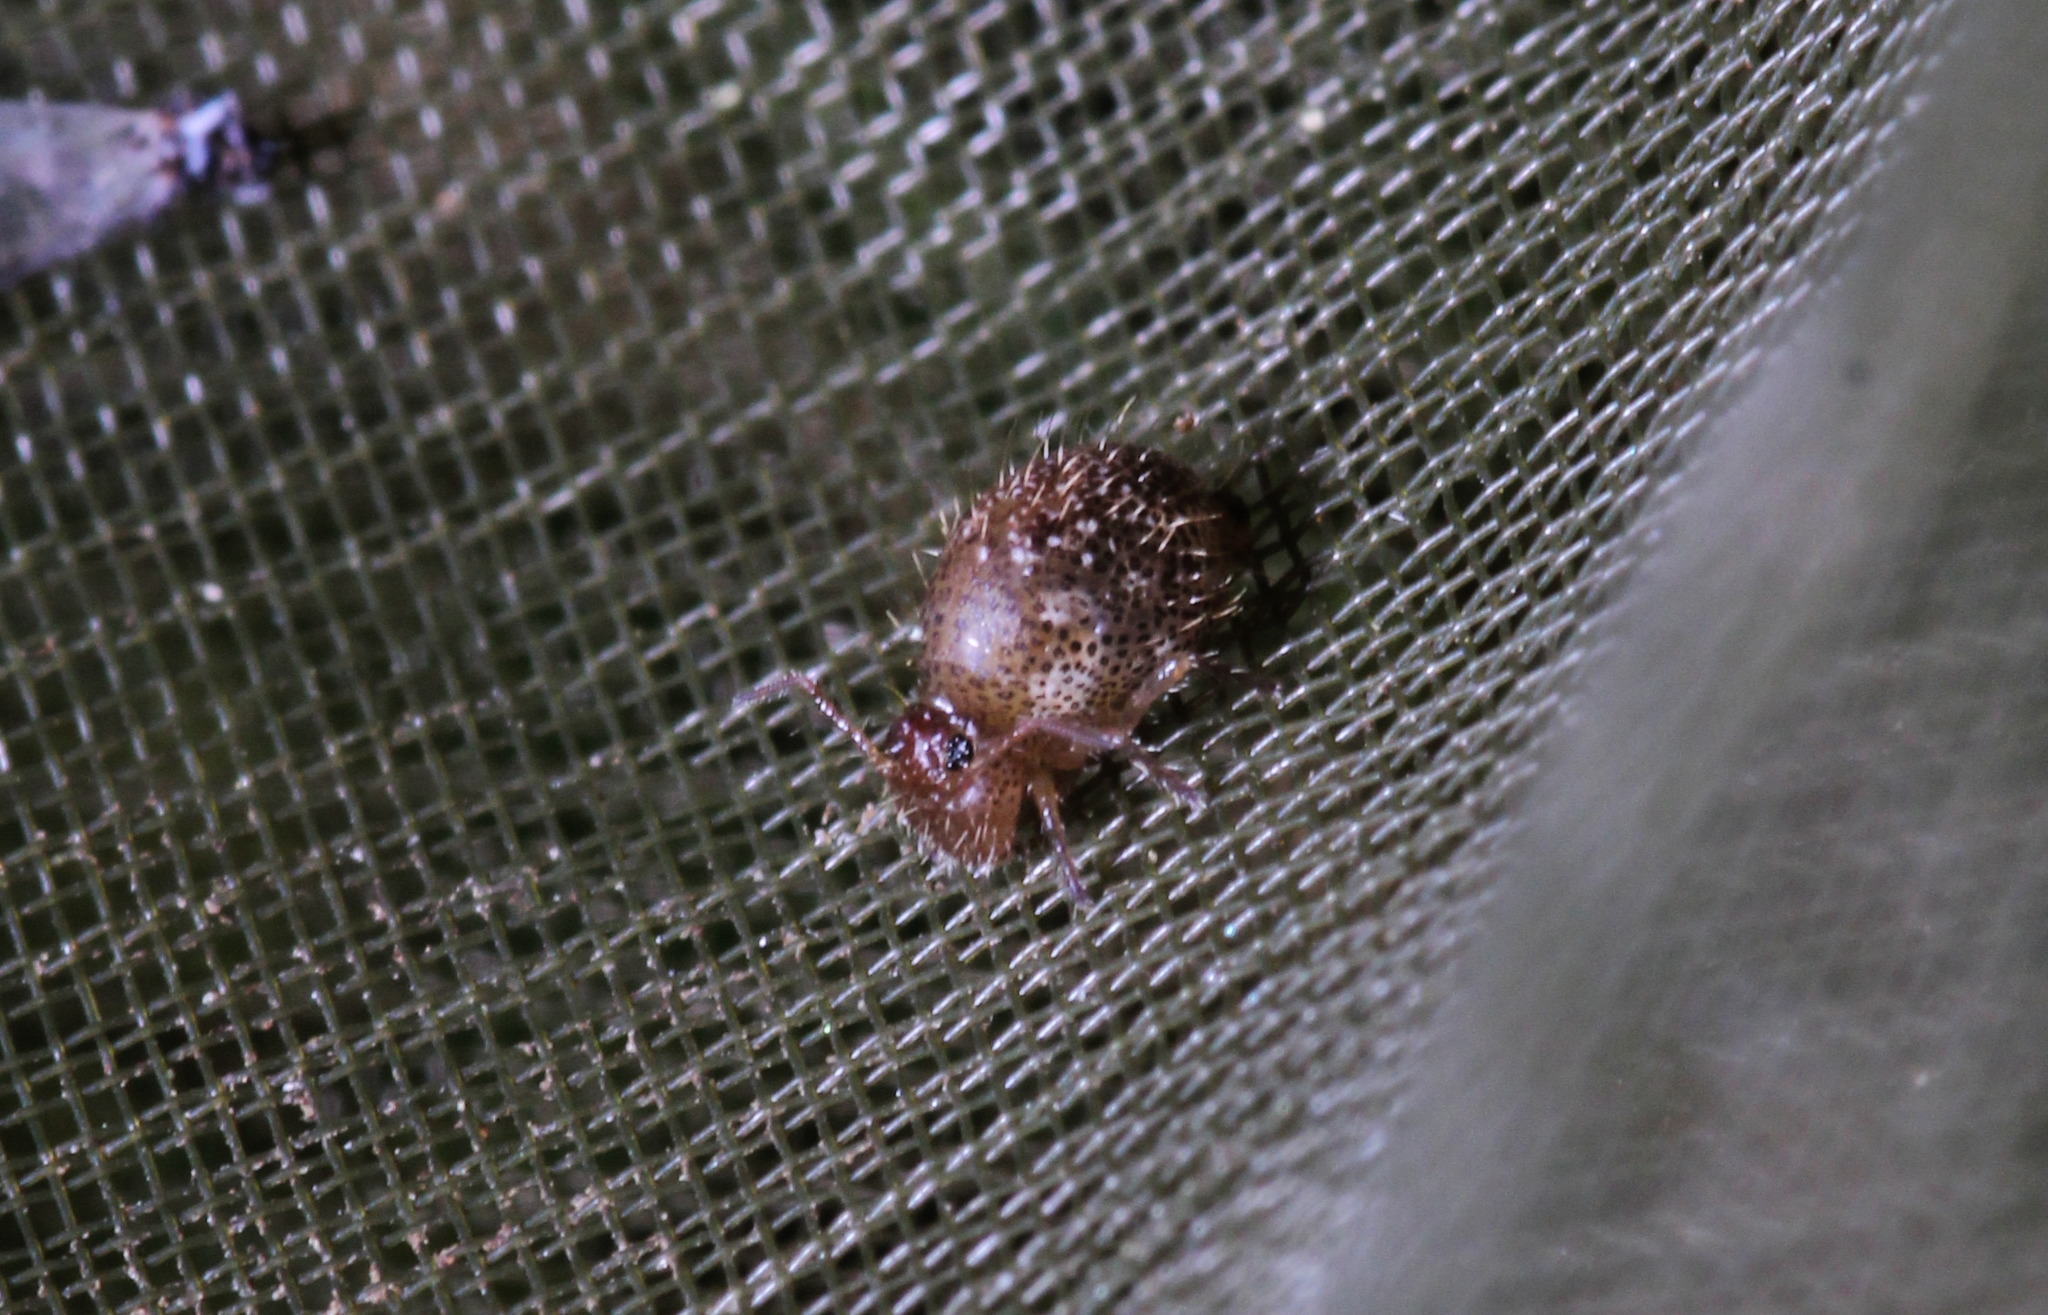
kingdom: Animalia
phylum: Arthropoda
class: Collembola
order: Symphypleona
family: Sminthuridae
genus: Allacma
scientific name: Allacma fusca
